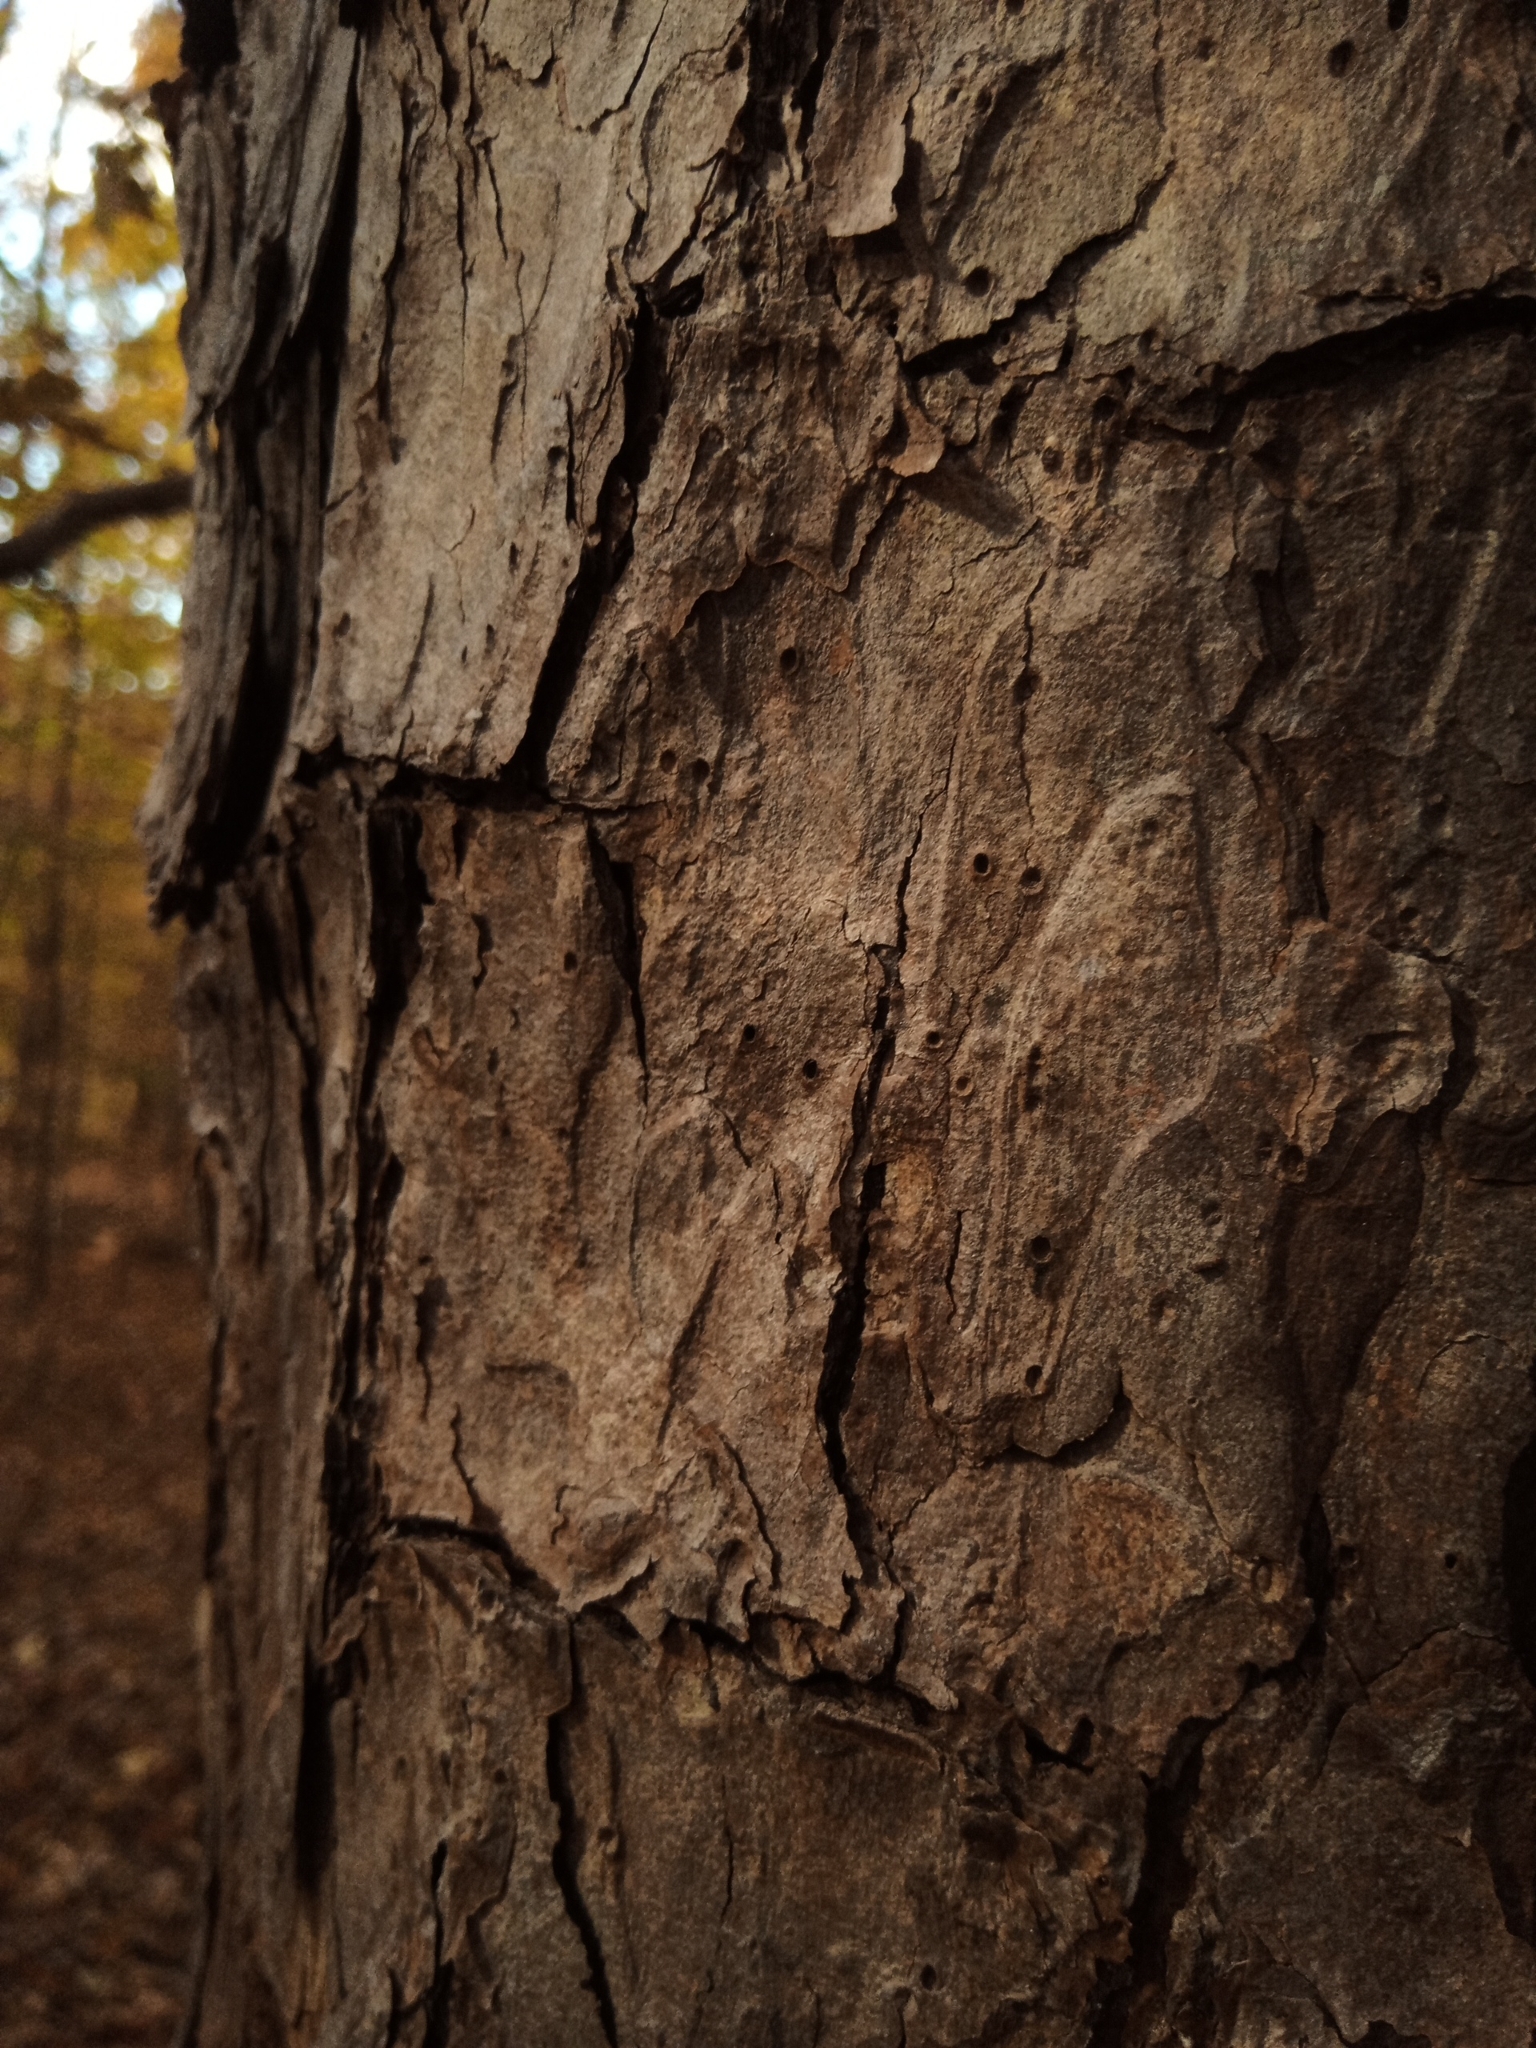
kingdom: Plantae
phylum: Tracheophyta
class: Pinopsida
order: Pinales
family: Pinaceae
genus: Pinus
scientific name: Pinus echinata
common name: Shortleaf pine
